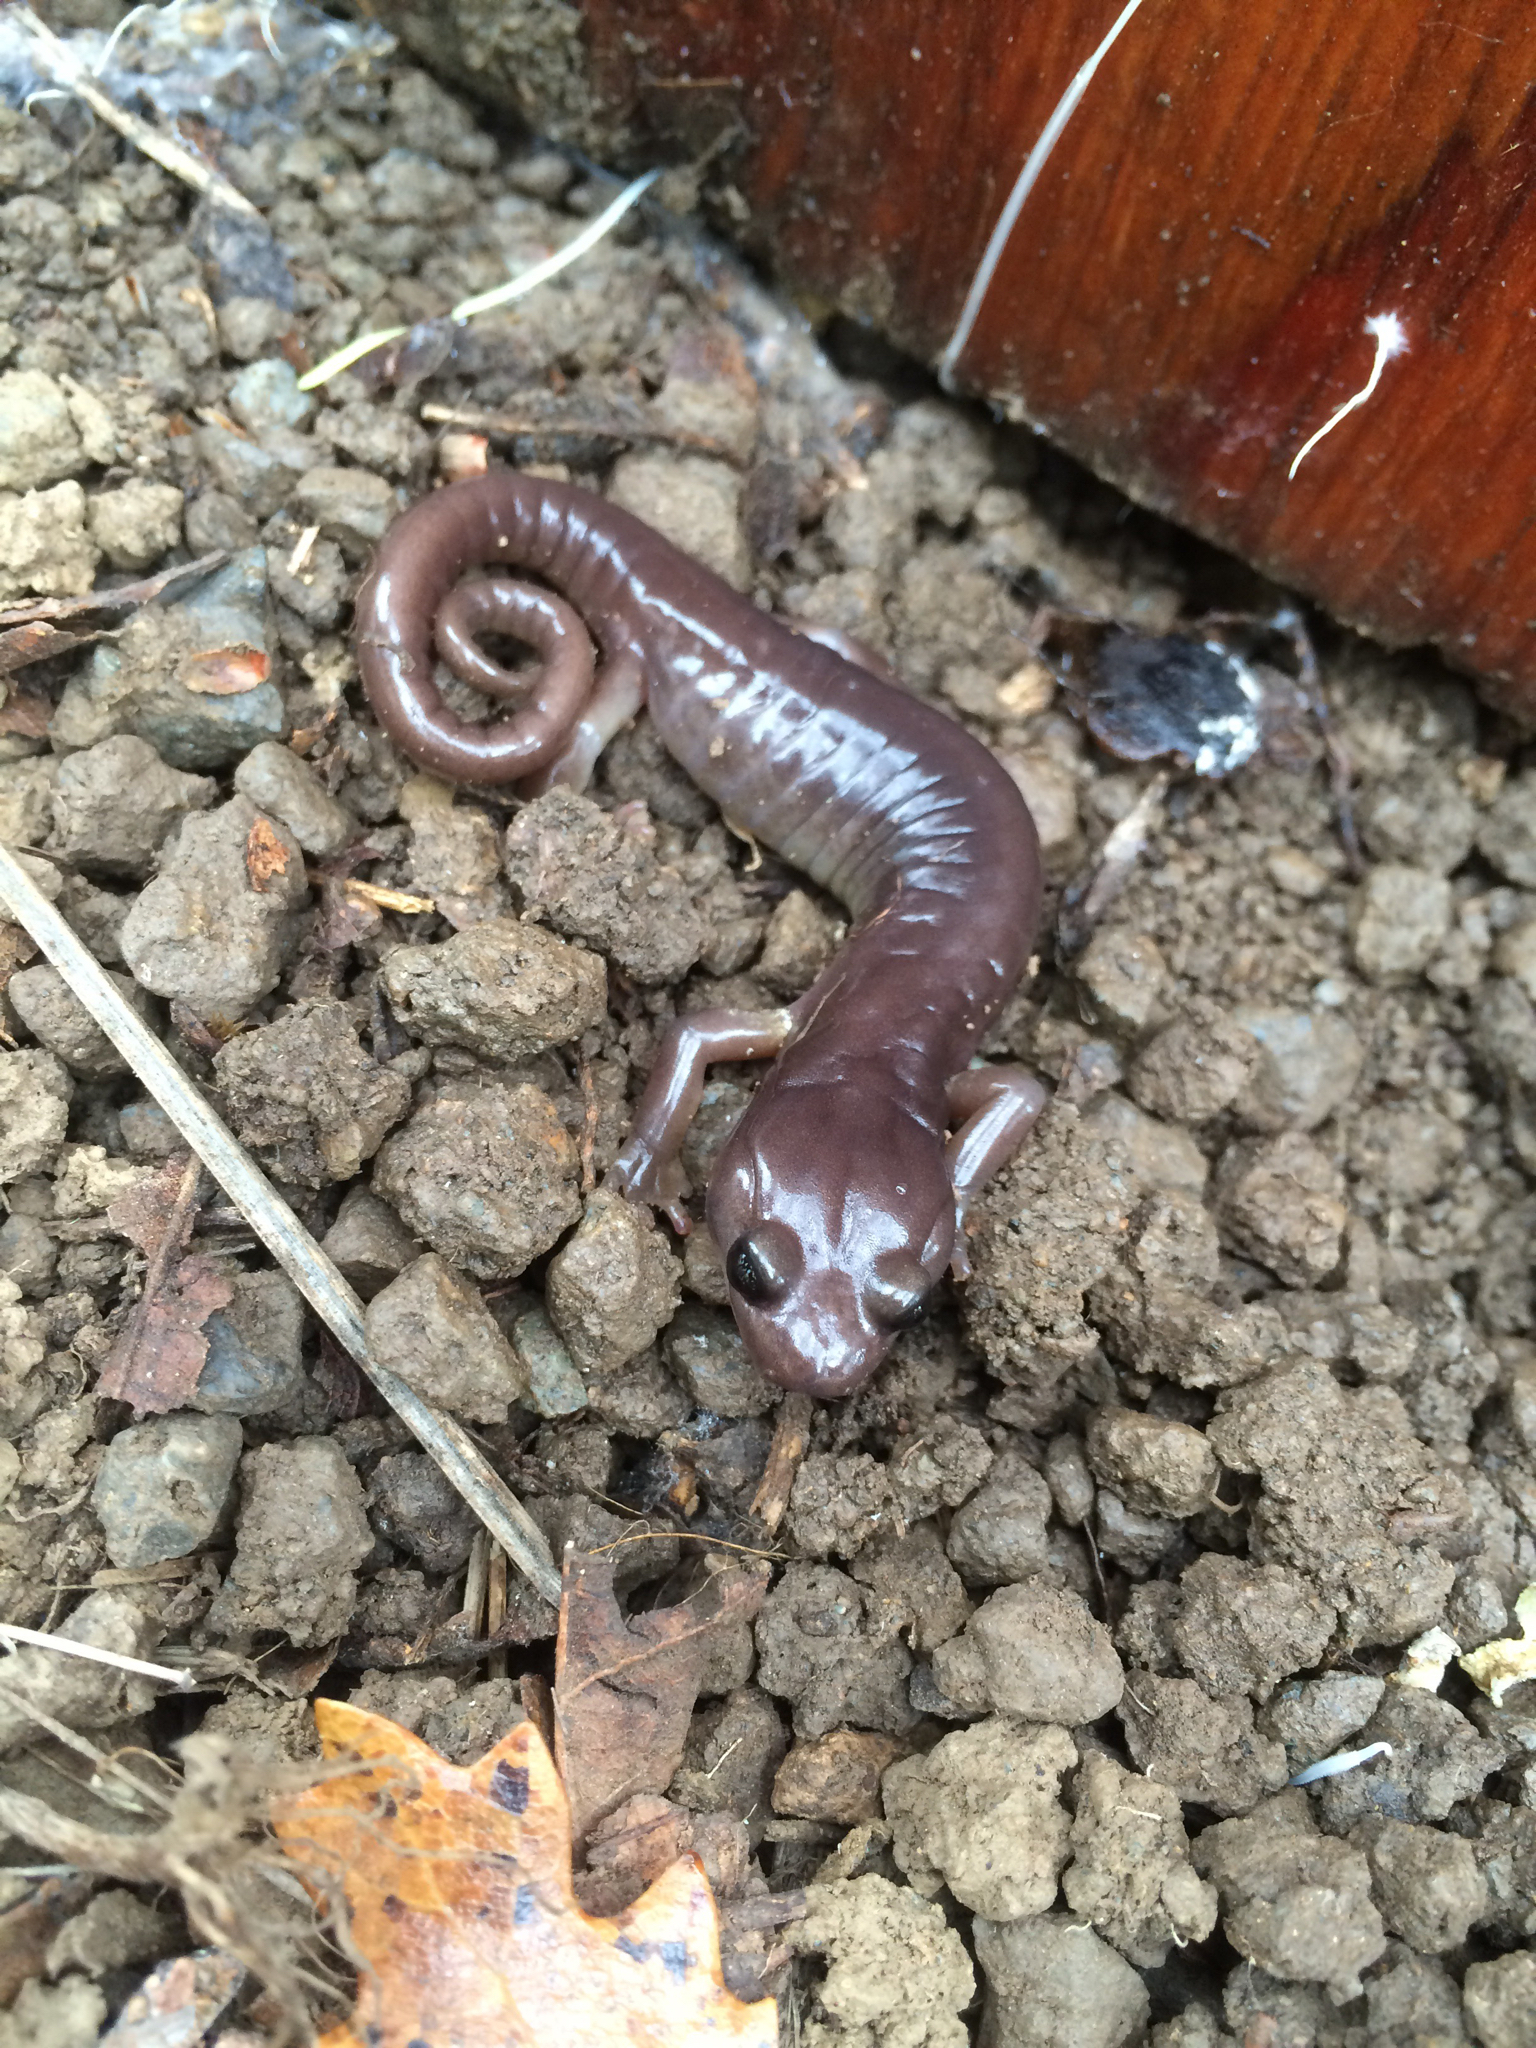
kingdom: Animalia
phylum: Chordata
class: Amphibia
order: Caudata
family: Plethodontidae
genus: Aneides
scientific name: Aneides lugubris
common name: Arboreal salamander
